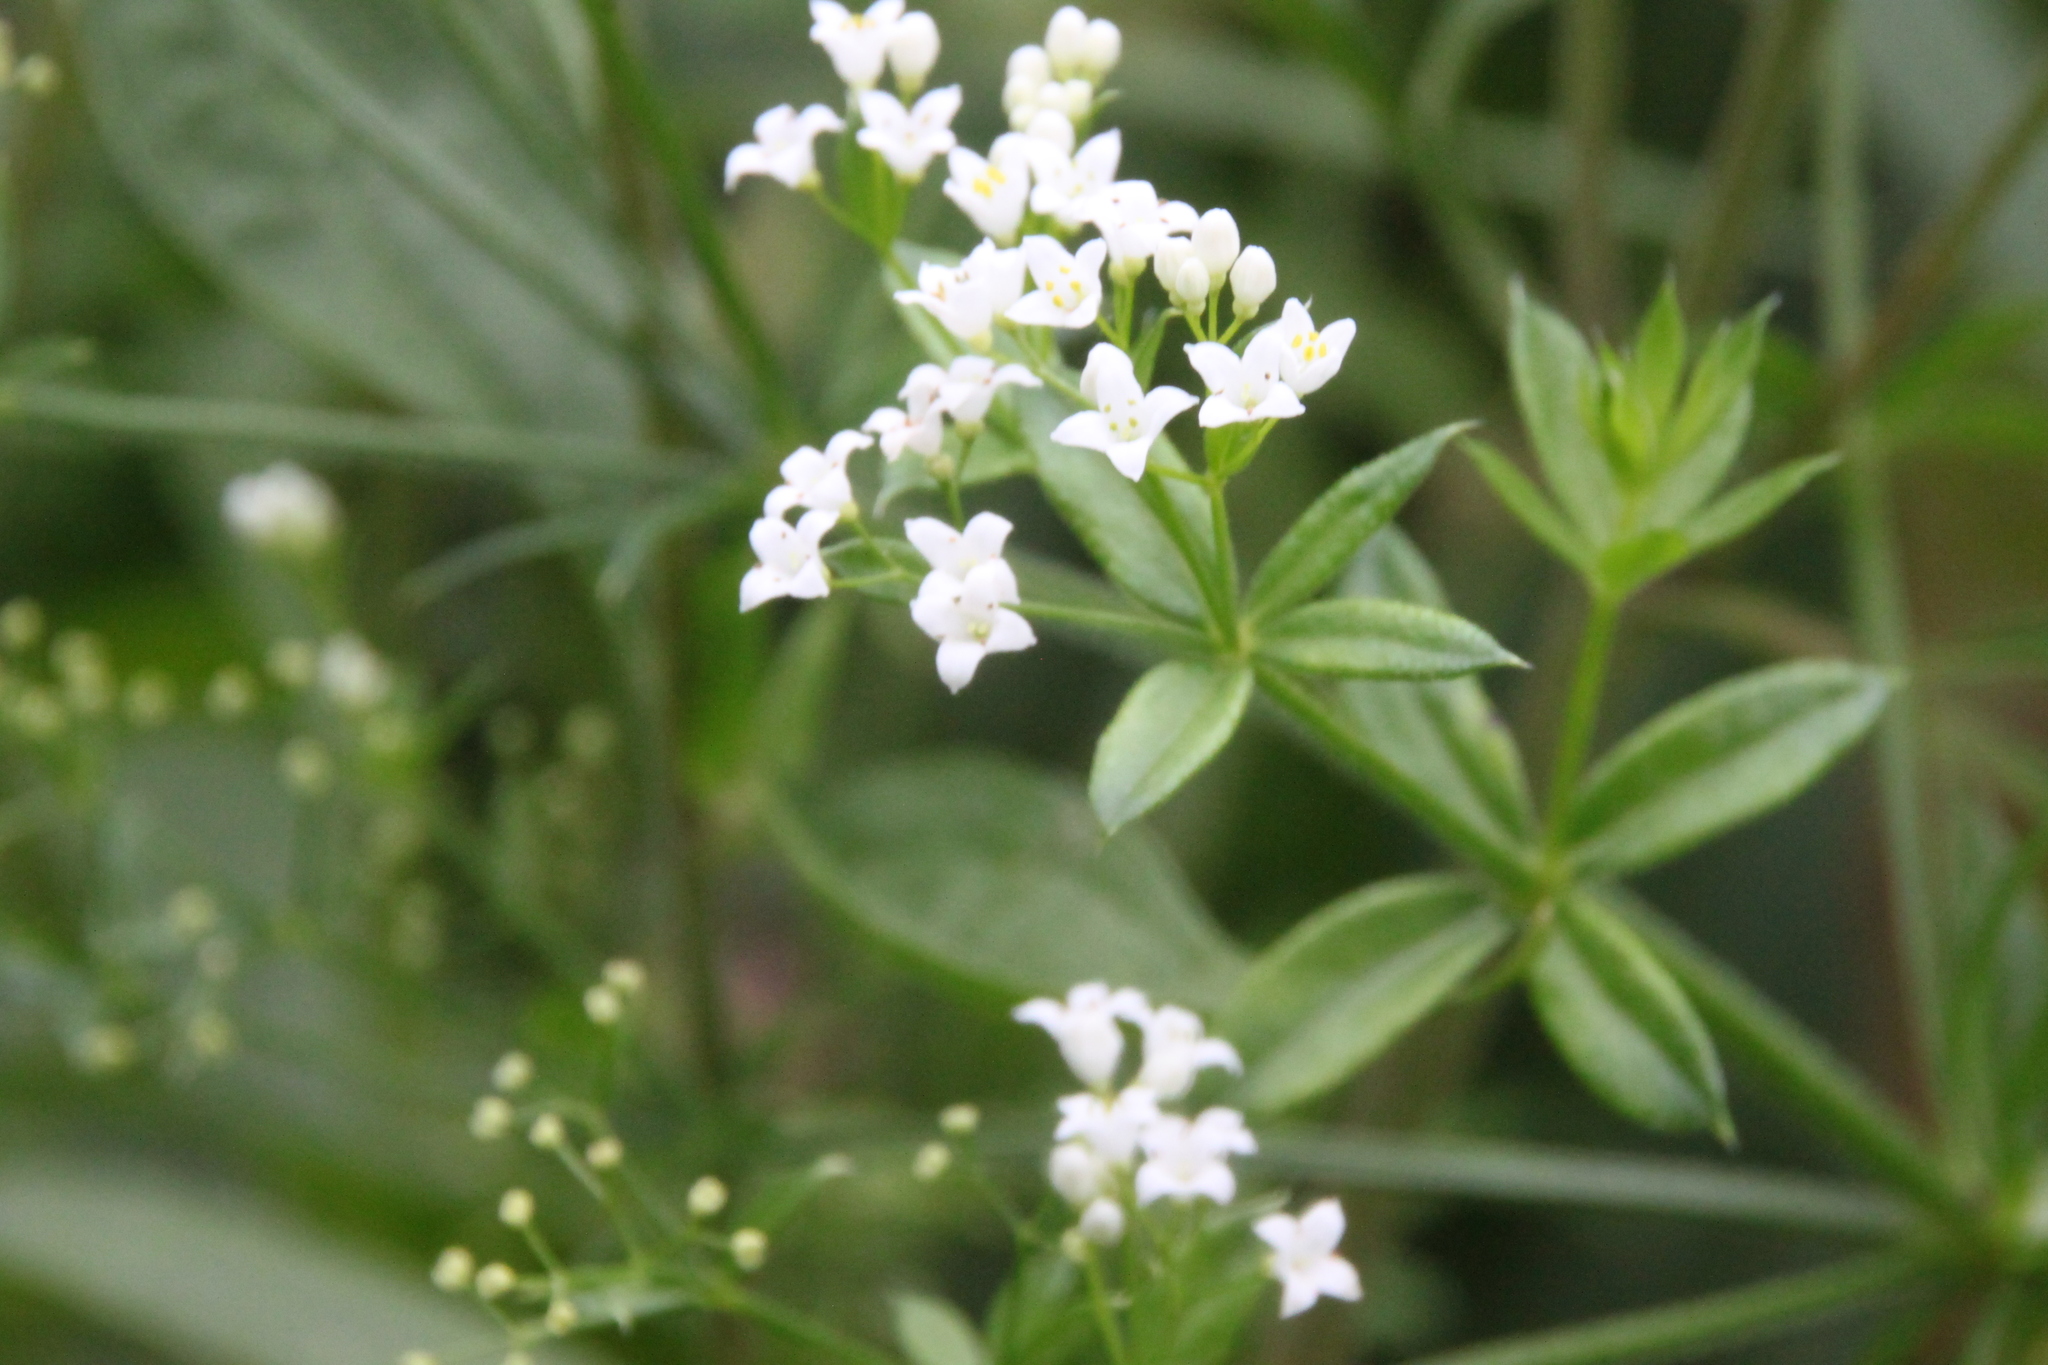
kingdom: Plantae
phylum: Tracheophyta
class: Magnoliopsida
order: Gentianales
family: Rubiaceae
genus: Galium
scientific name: Galium rivale
